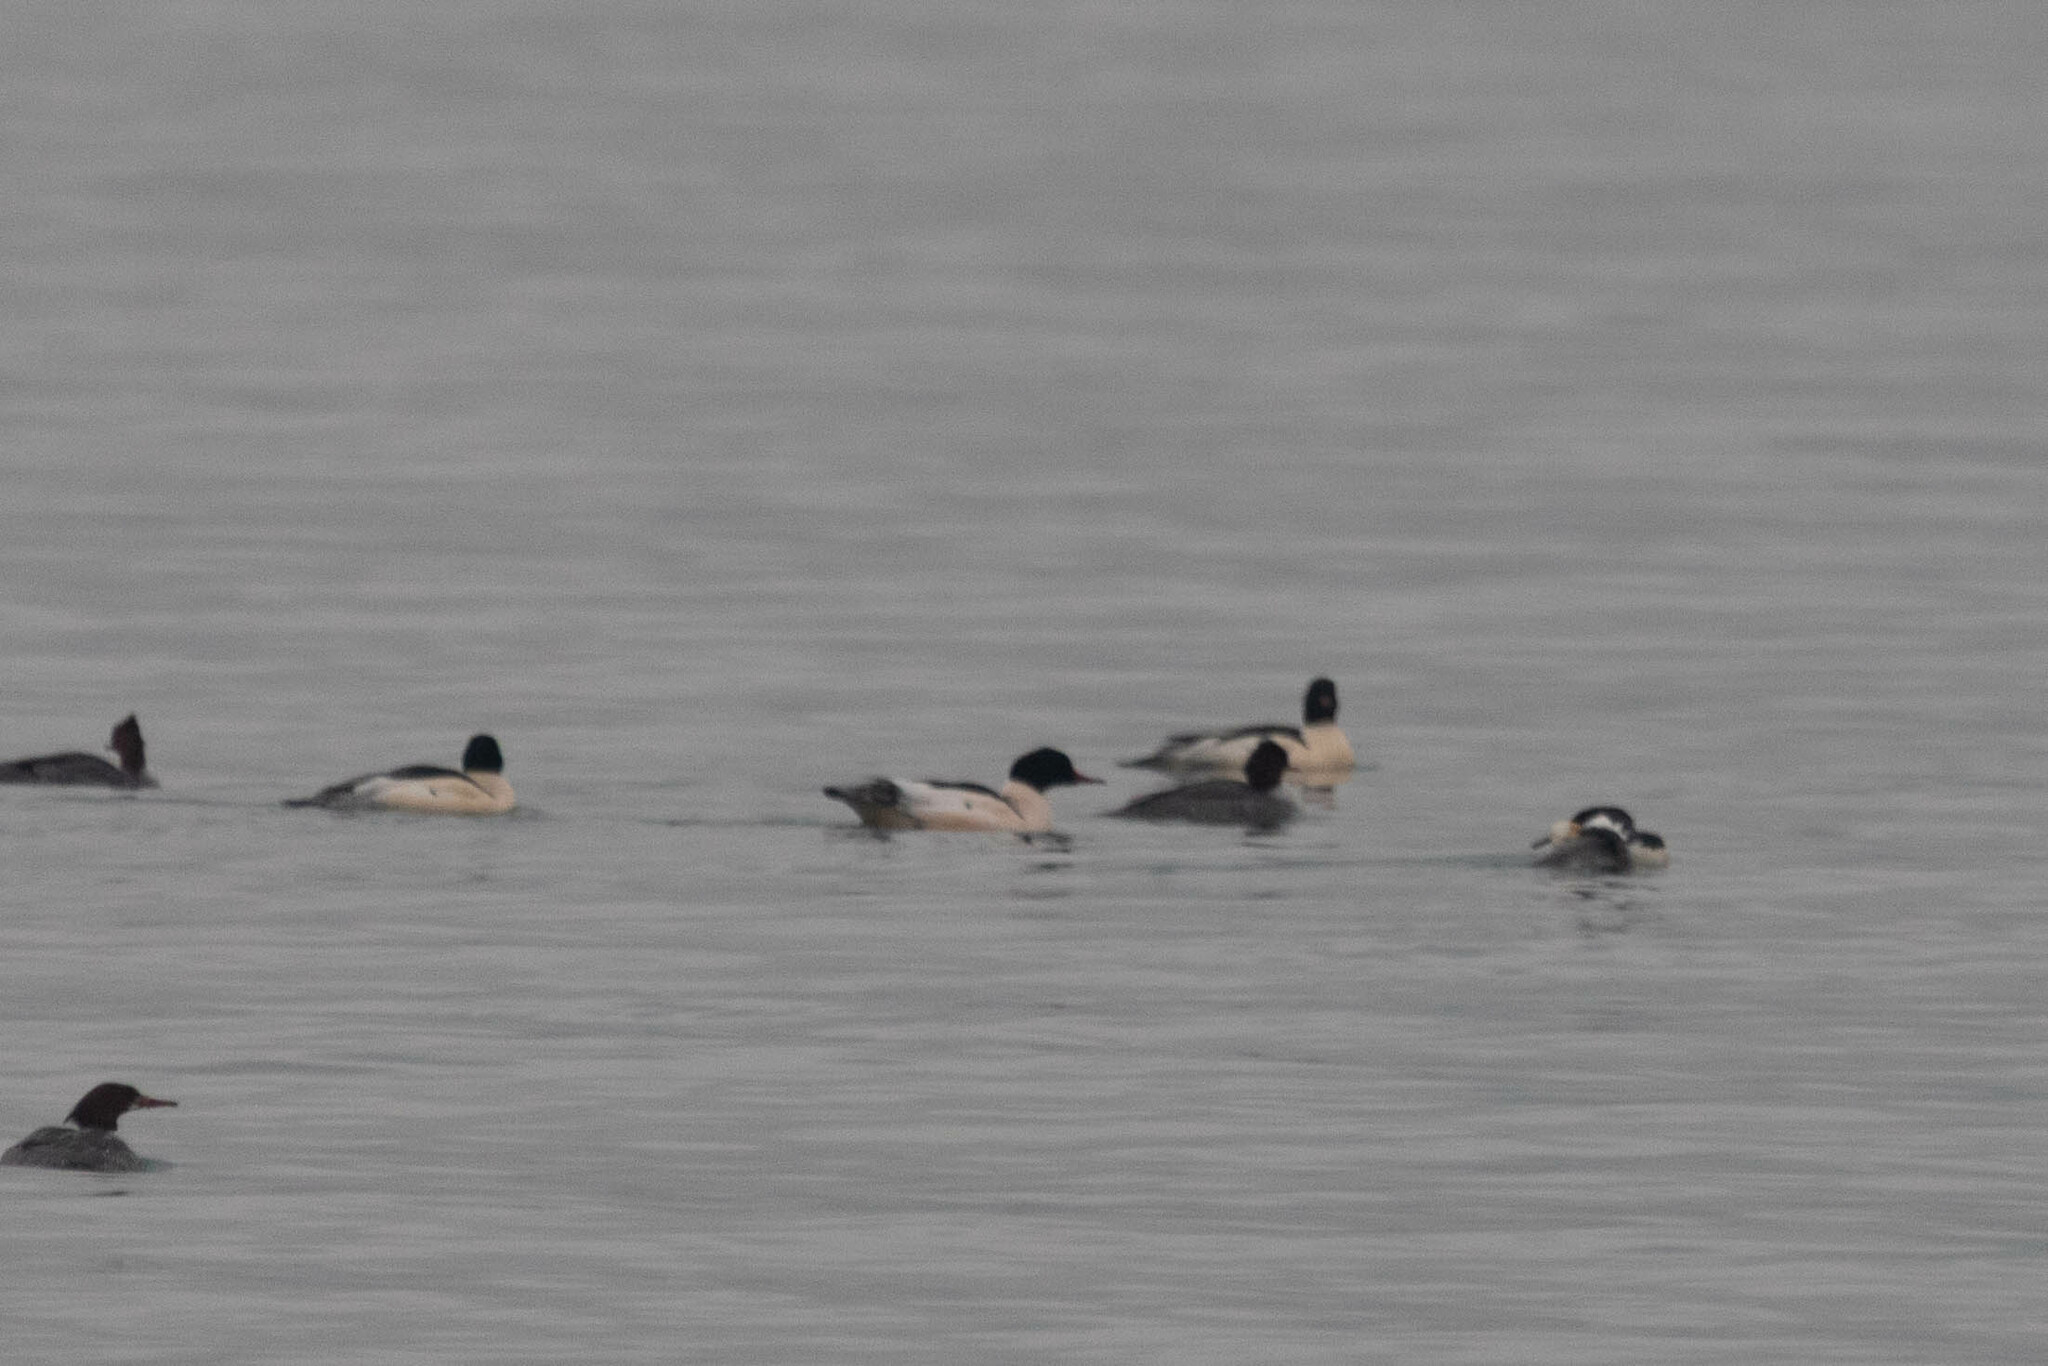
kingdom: Animalia
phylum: Chordata
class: Aves
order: Anseriformes
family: Anatidae
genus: Mergus
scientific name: Mergus merganser
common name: Common merganser
